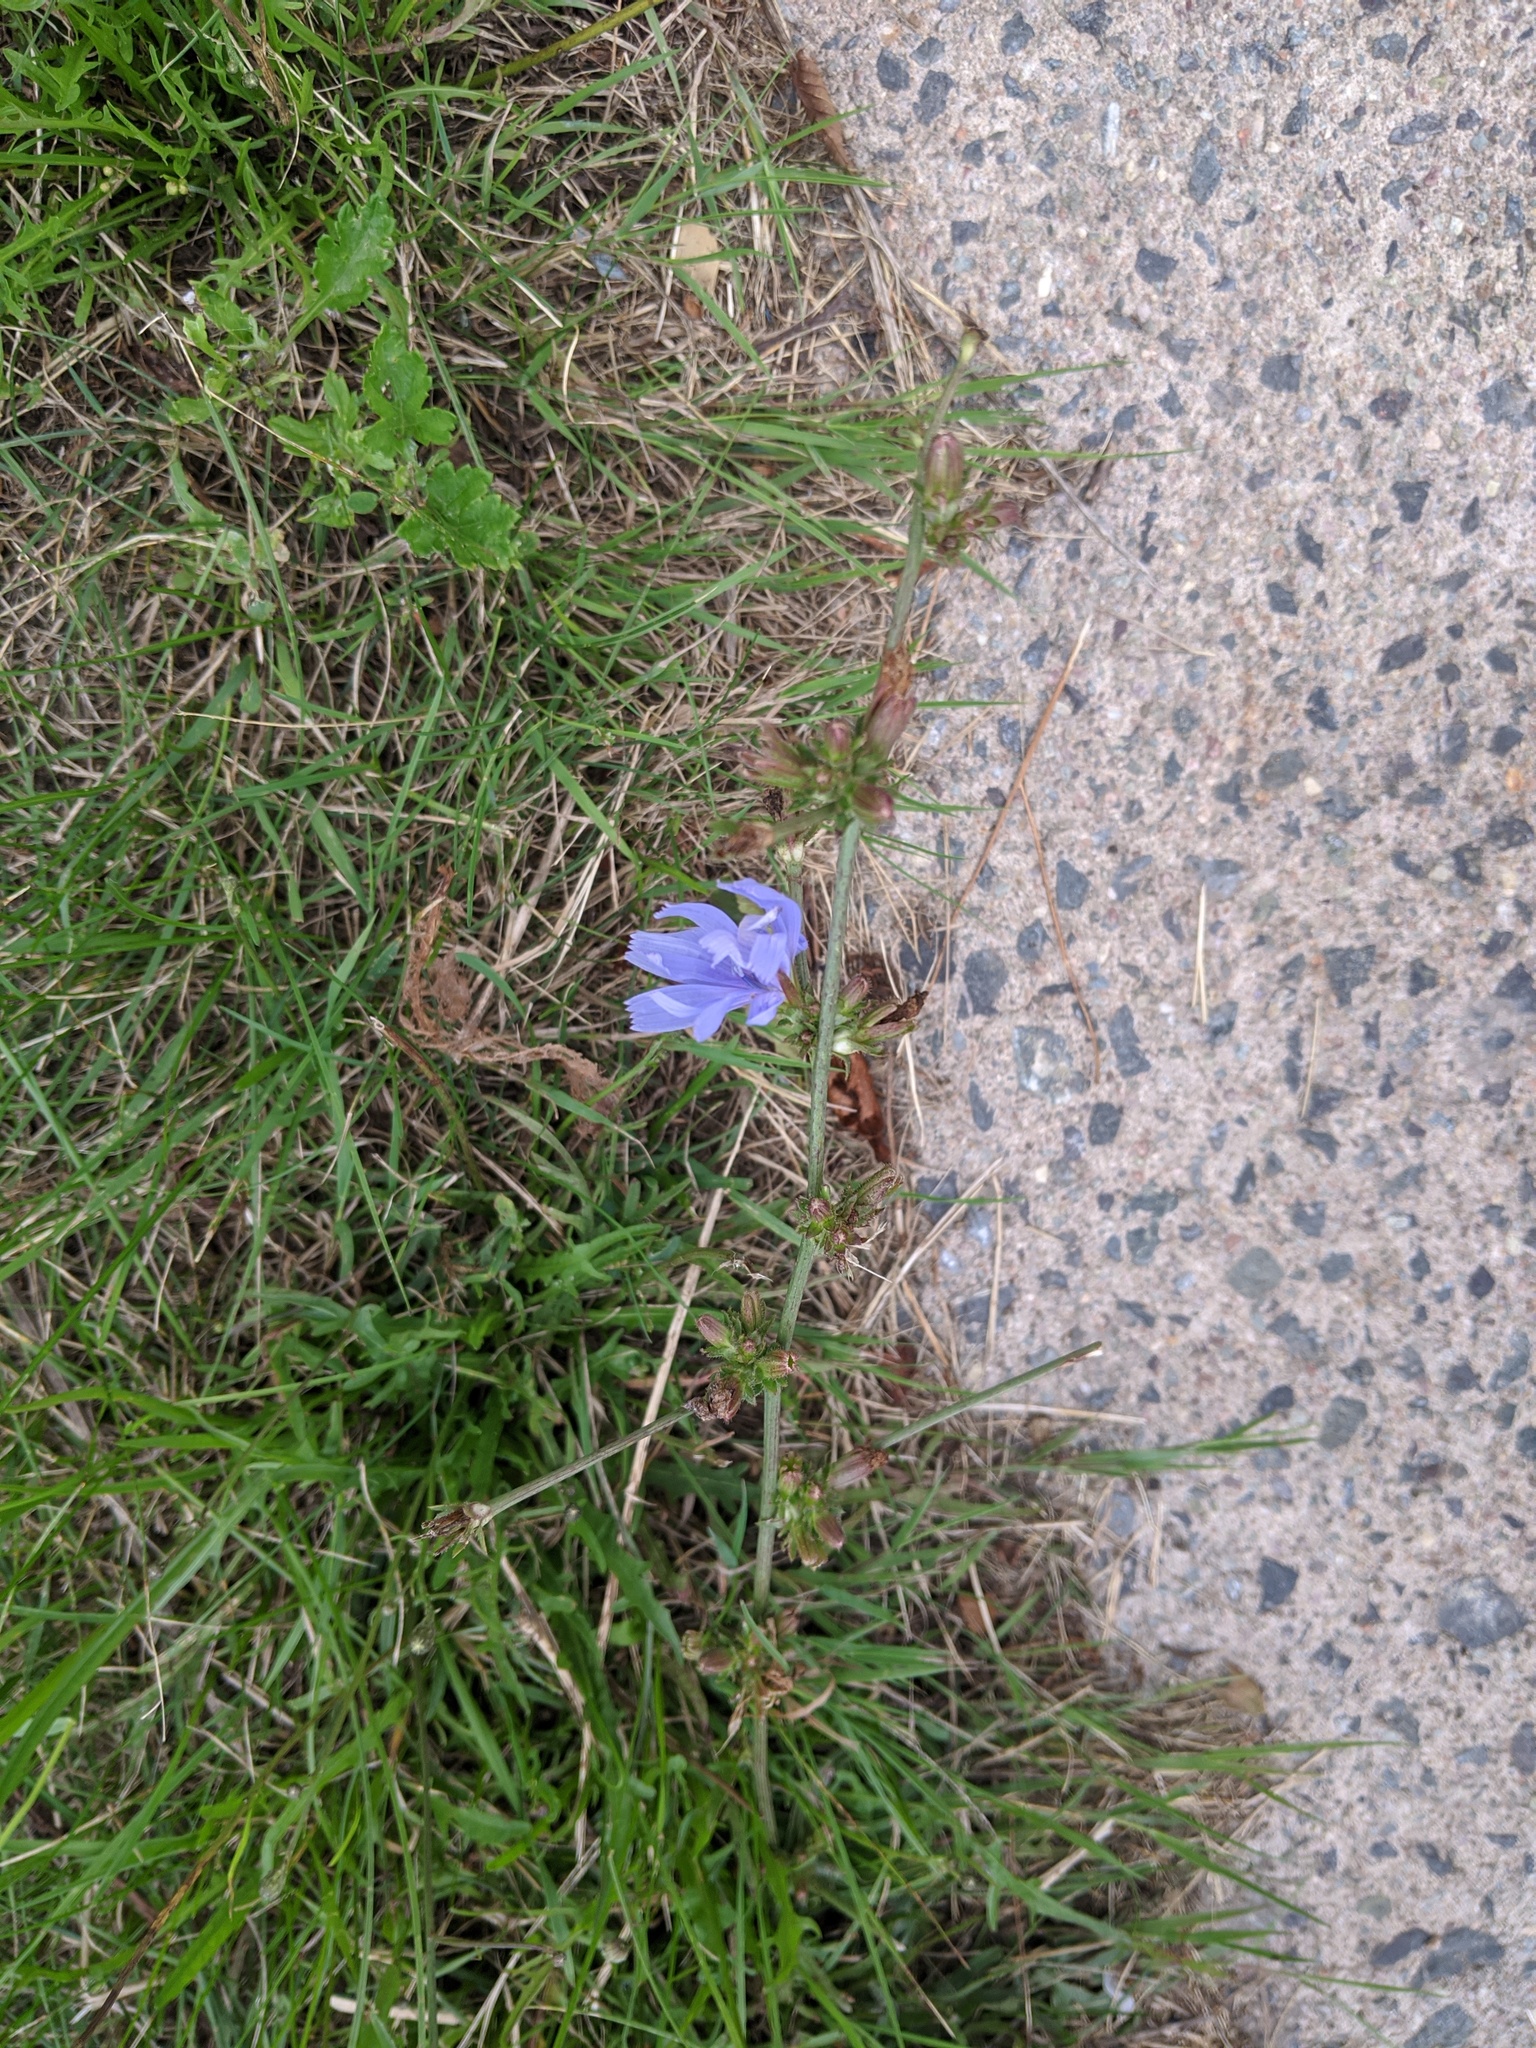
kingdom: Plantae
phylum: Tracheophyta
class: Magnoliopsida
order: Asterales
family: Asteraceae
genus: Cichorium
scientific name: Cichorium intybus
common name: Chicory
